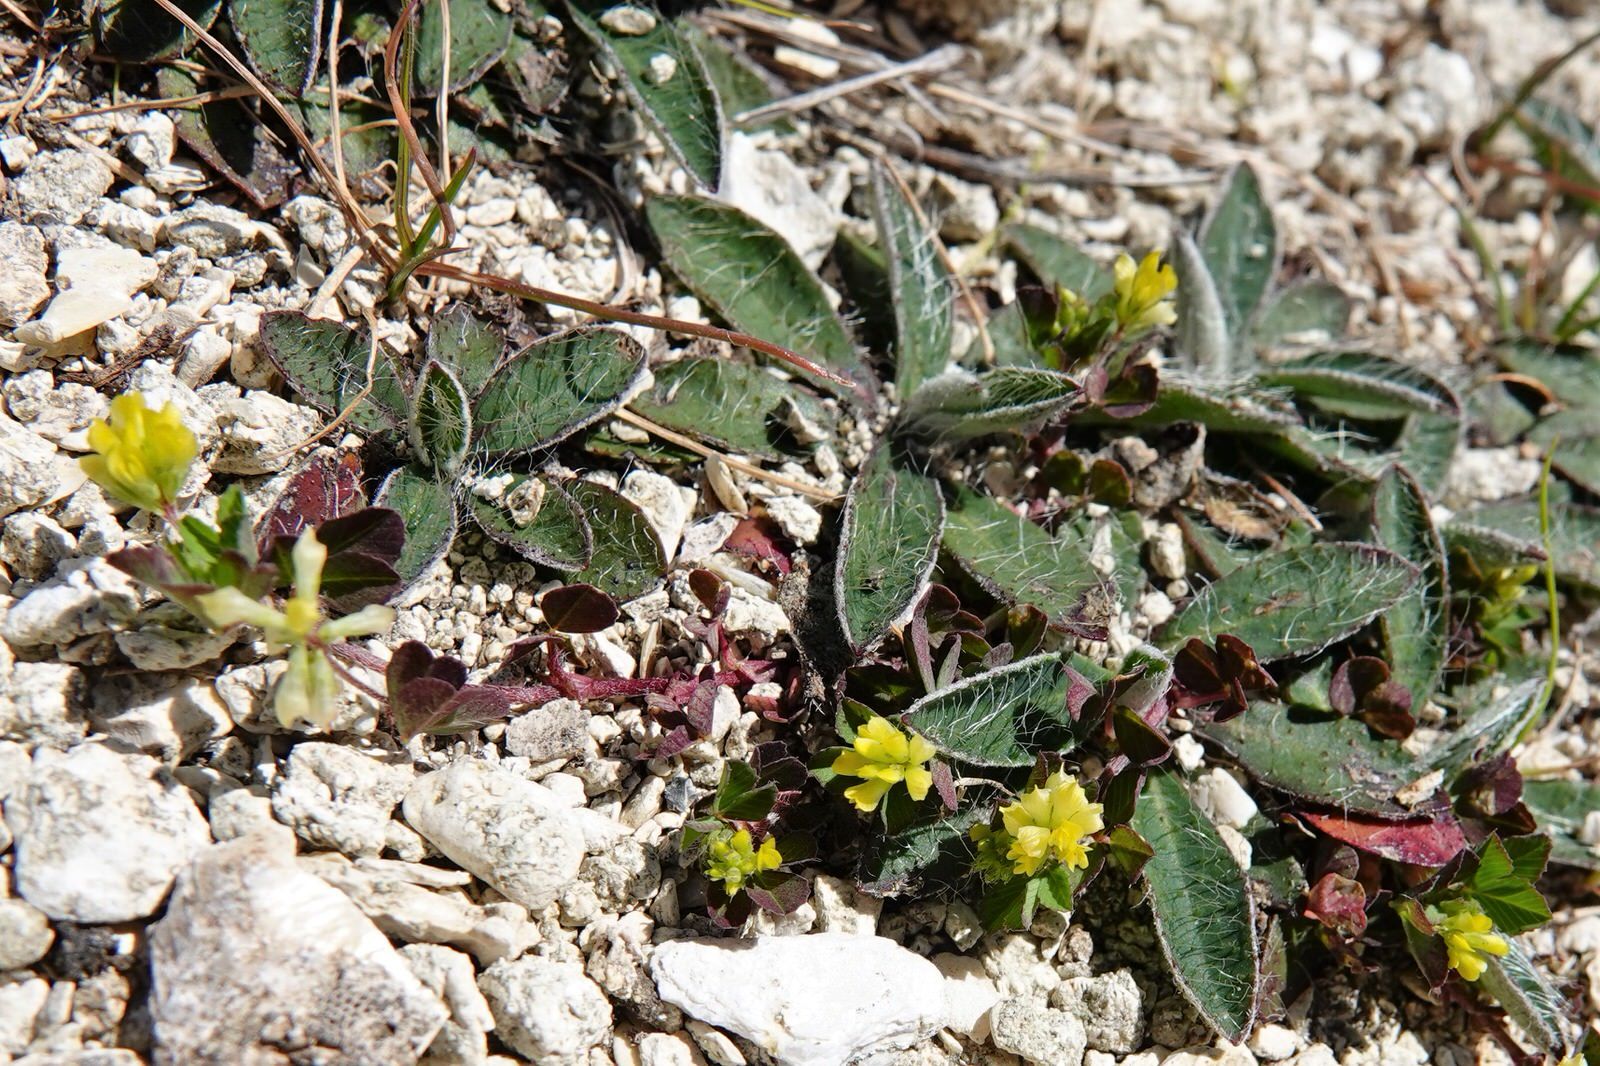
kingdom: Plantae
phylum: Tracheophyta
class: Magnoliopsida
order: Fabales
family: Fabaceae
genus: Trifolium
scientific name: Trifolium dubium
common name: Suckling clover
